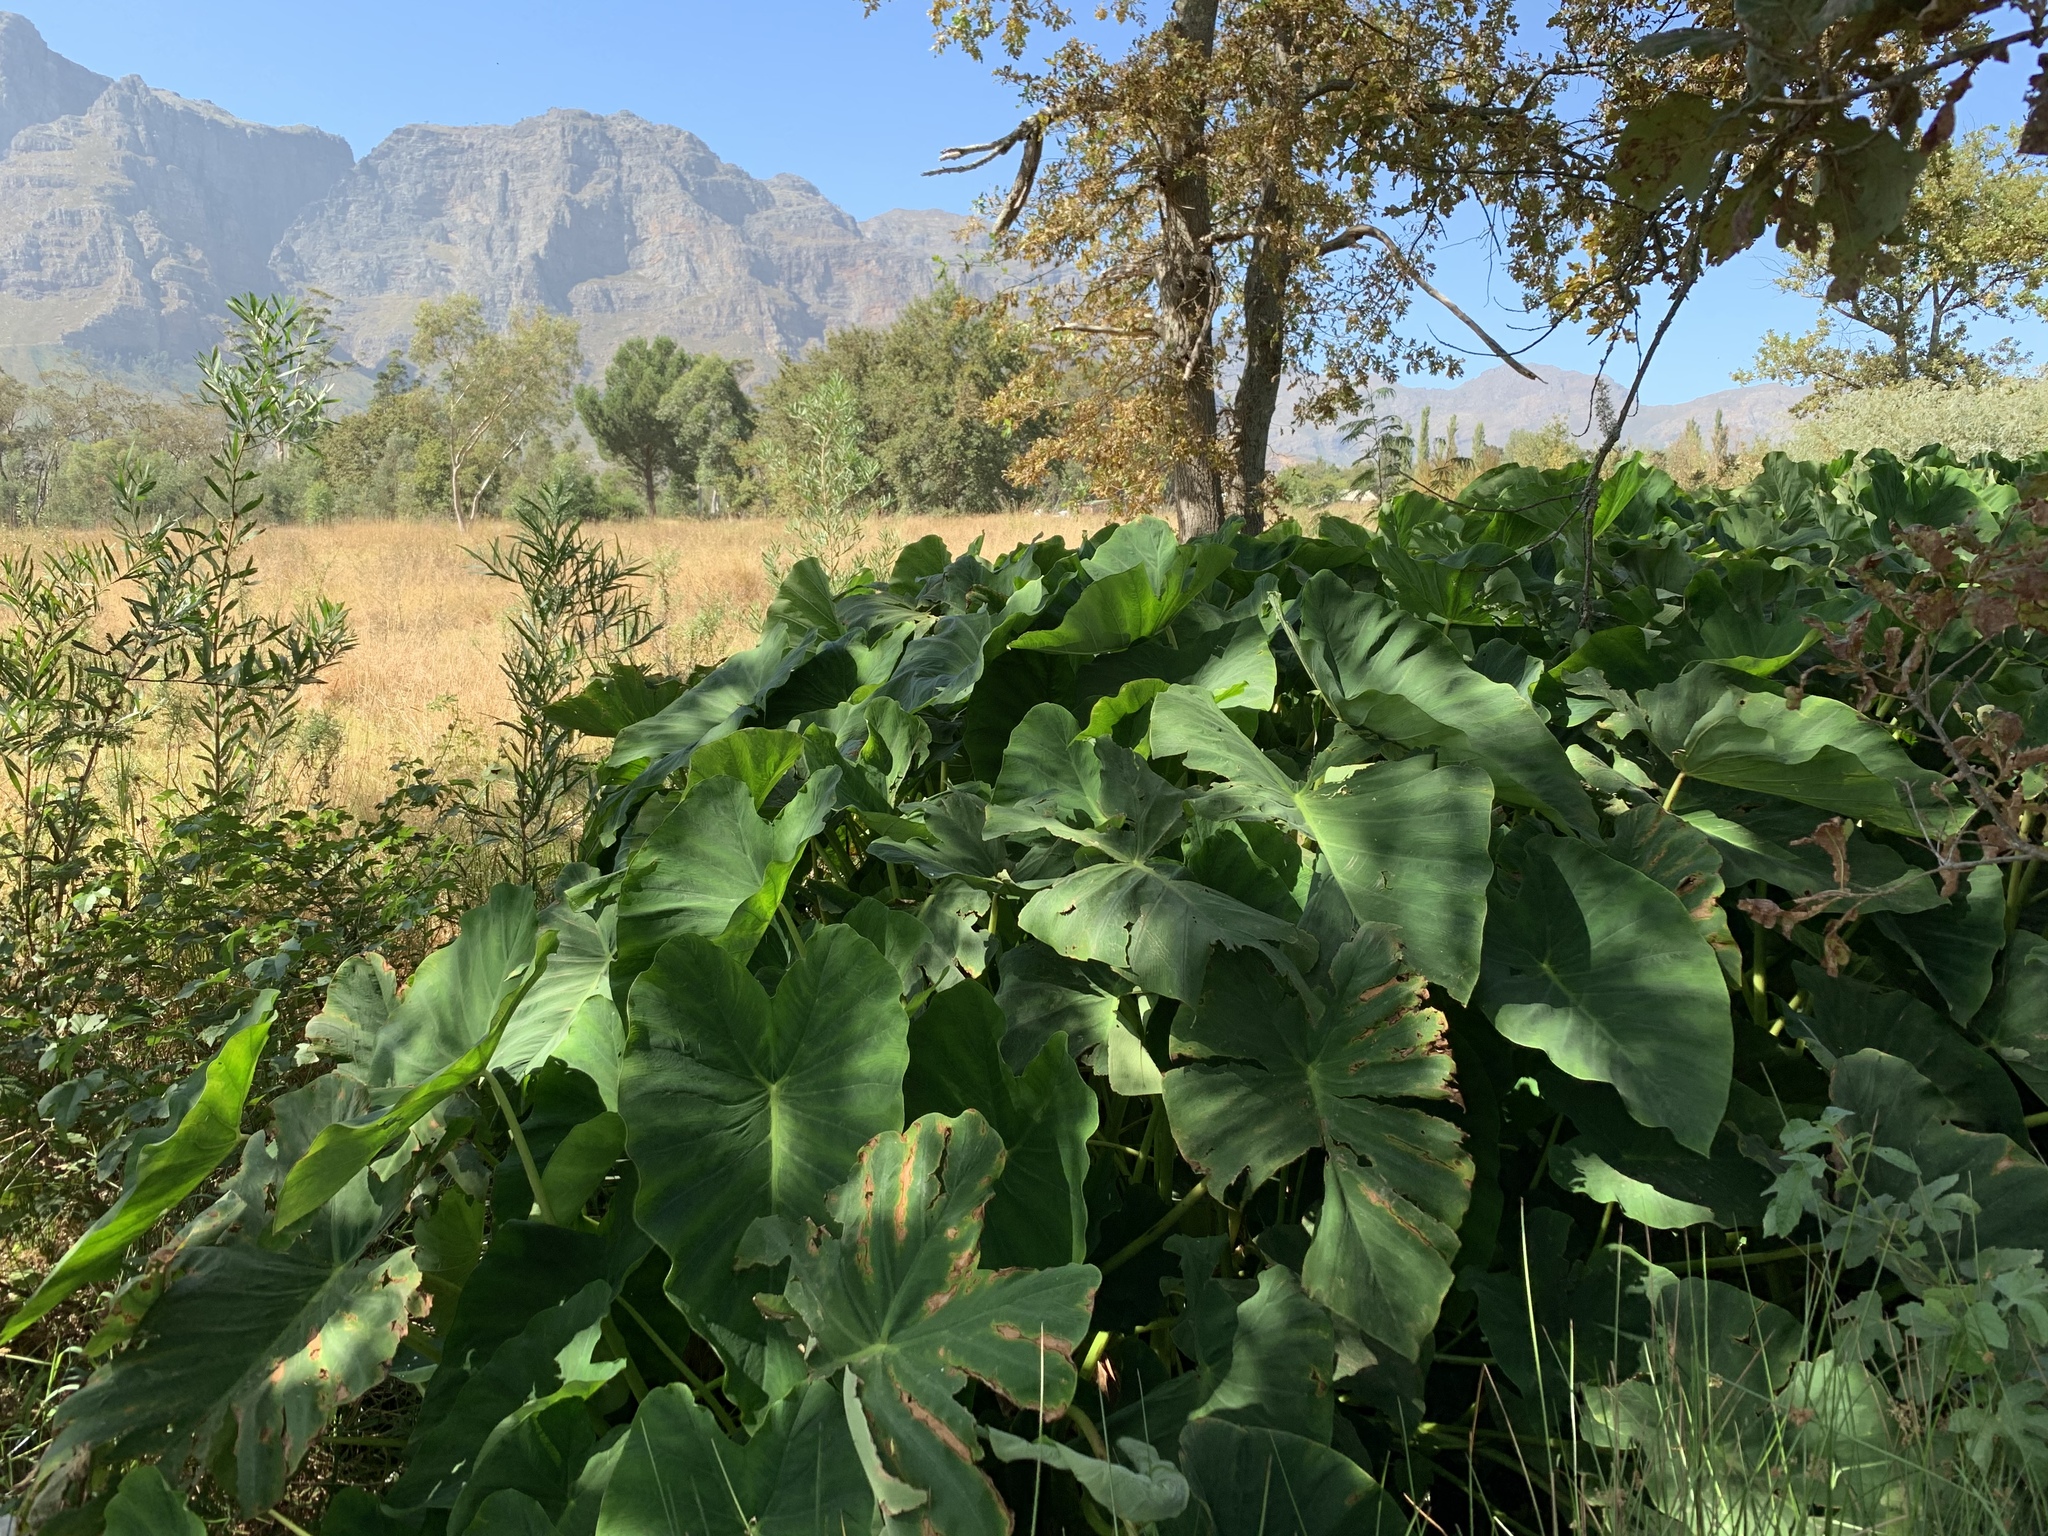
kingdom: Plantae
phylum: Tracheophyta
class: Liliopsida
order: Alismatales
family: Araceae
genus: Colocasia
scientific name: Colocasia esculenta
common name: Taro
